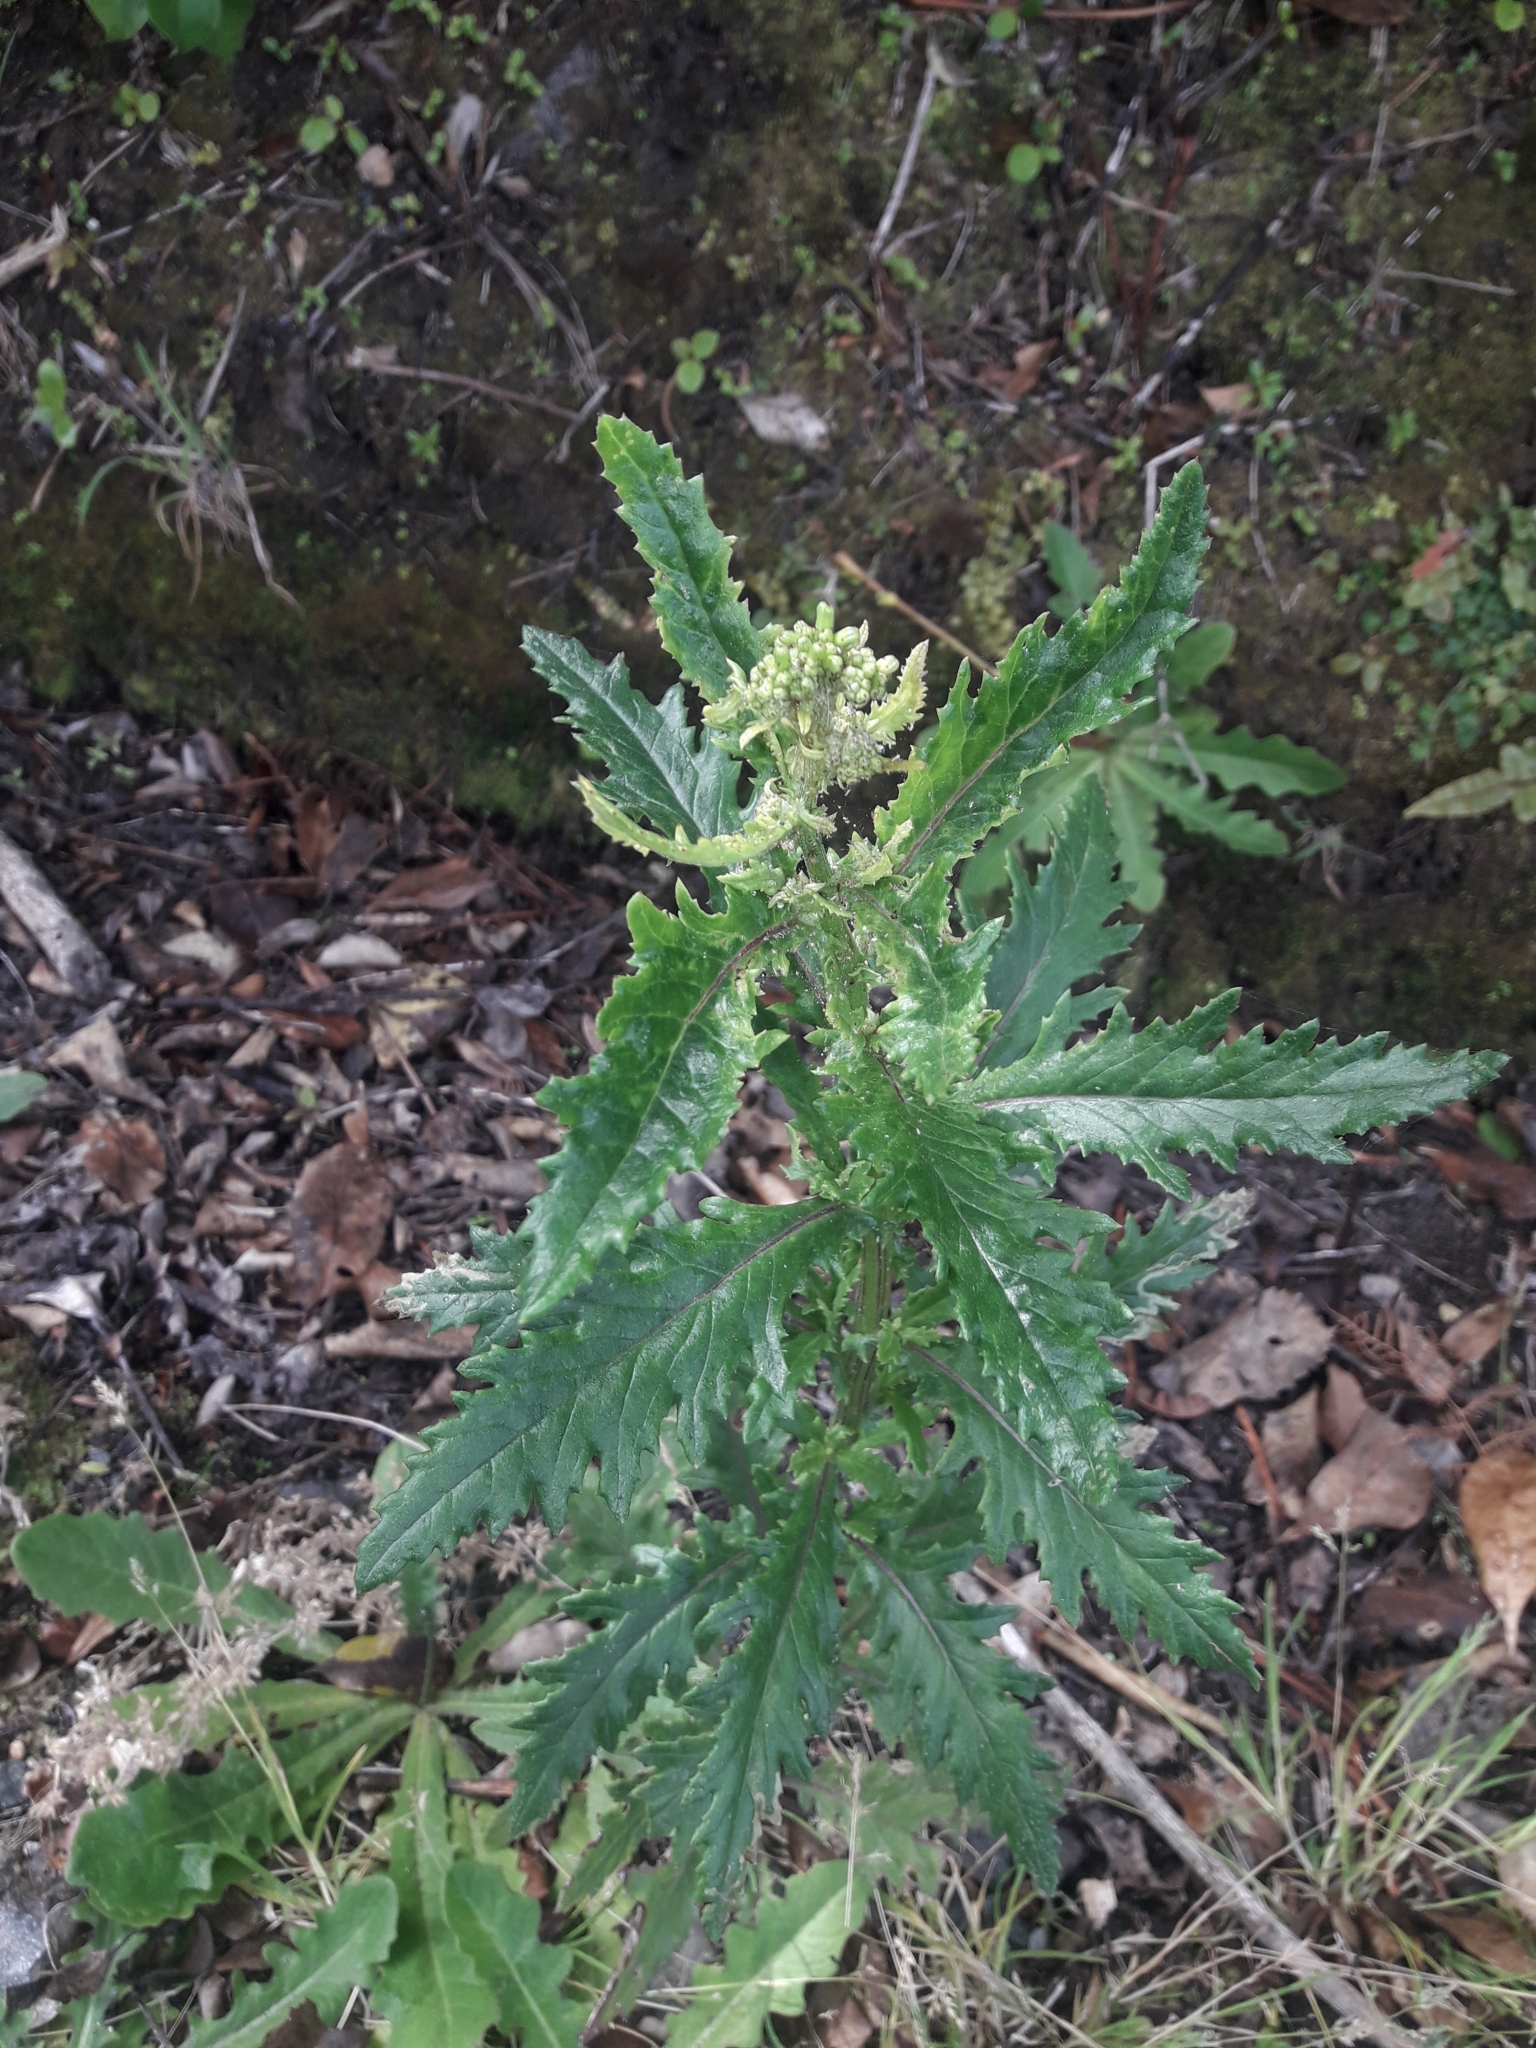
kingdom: Plantae
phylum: Tracheophyta
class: Magnoliopsida
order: Asterales
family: Asteraceae
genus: Senecio
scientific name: Senecio biserratus
